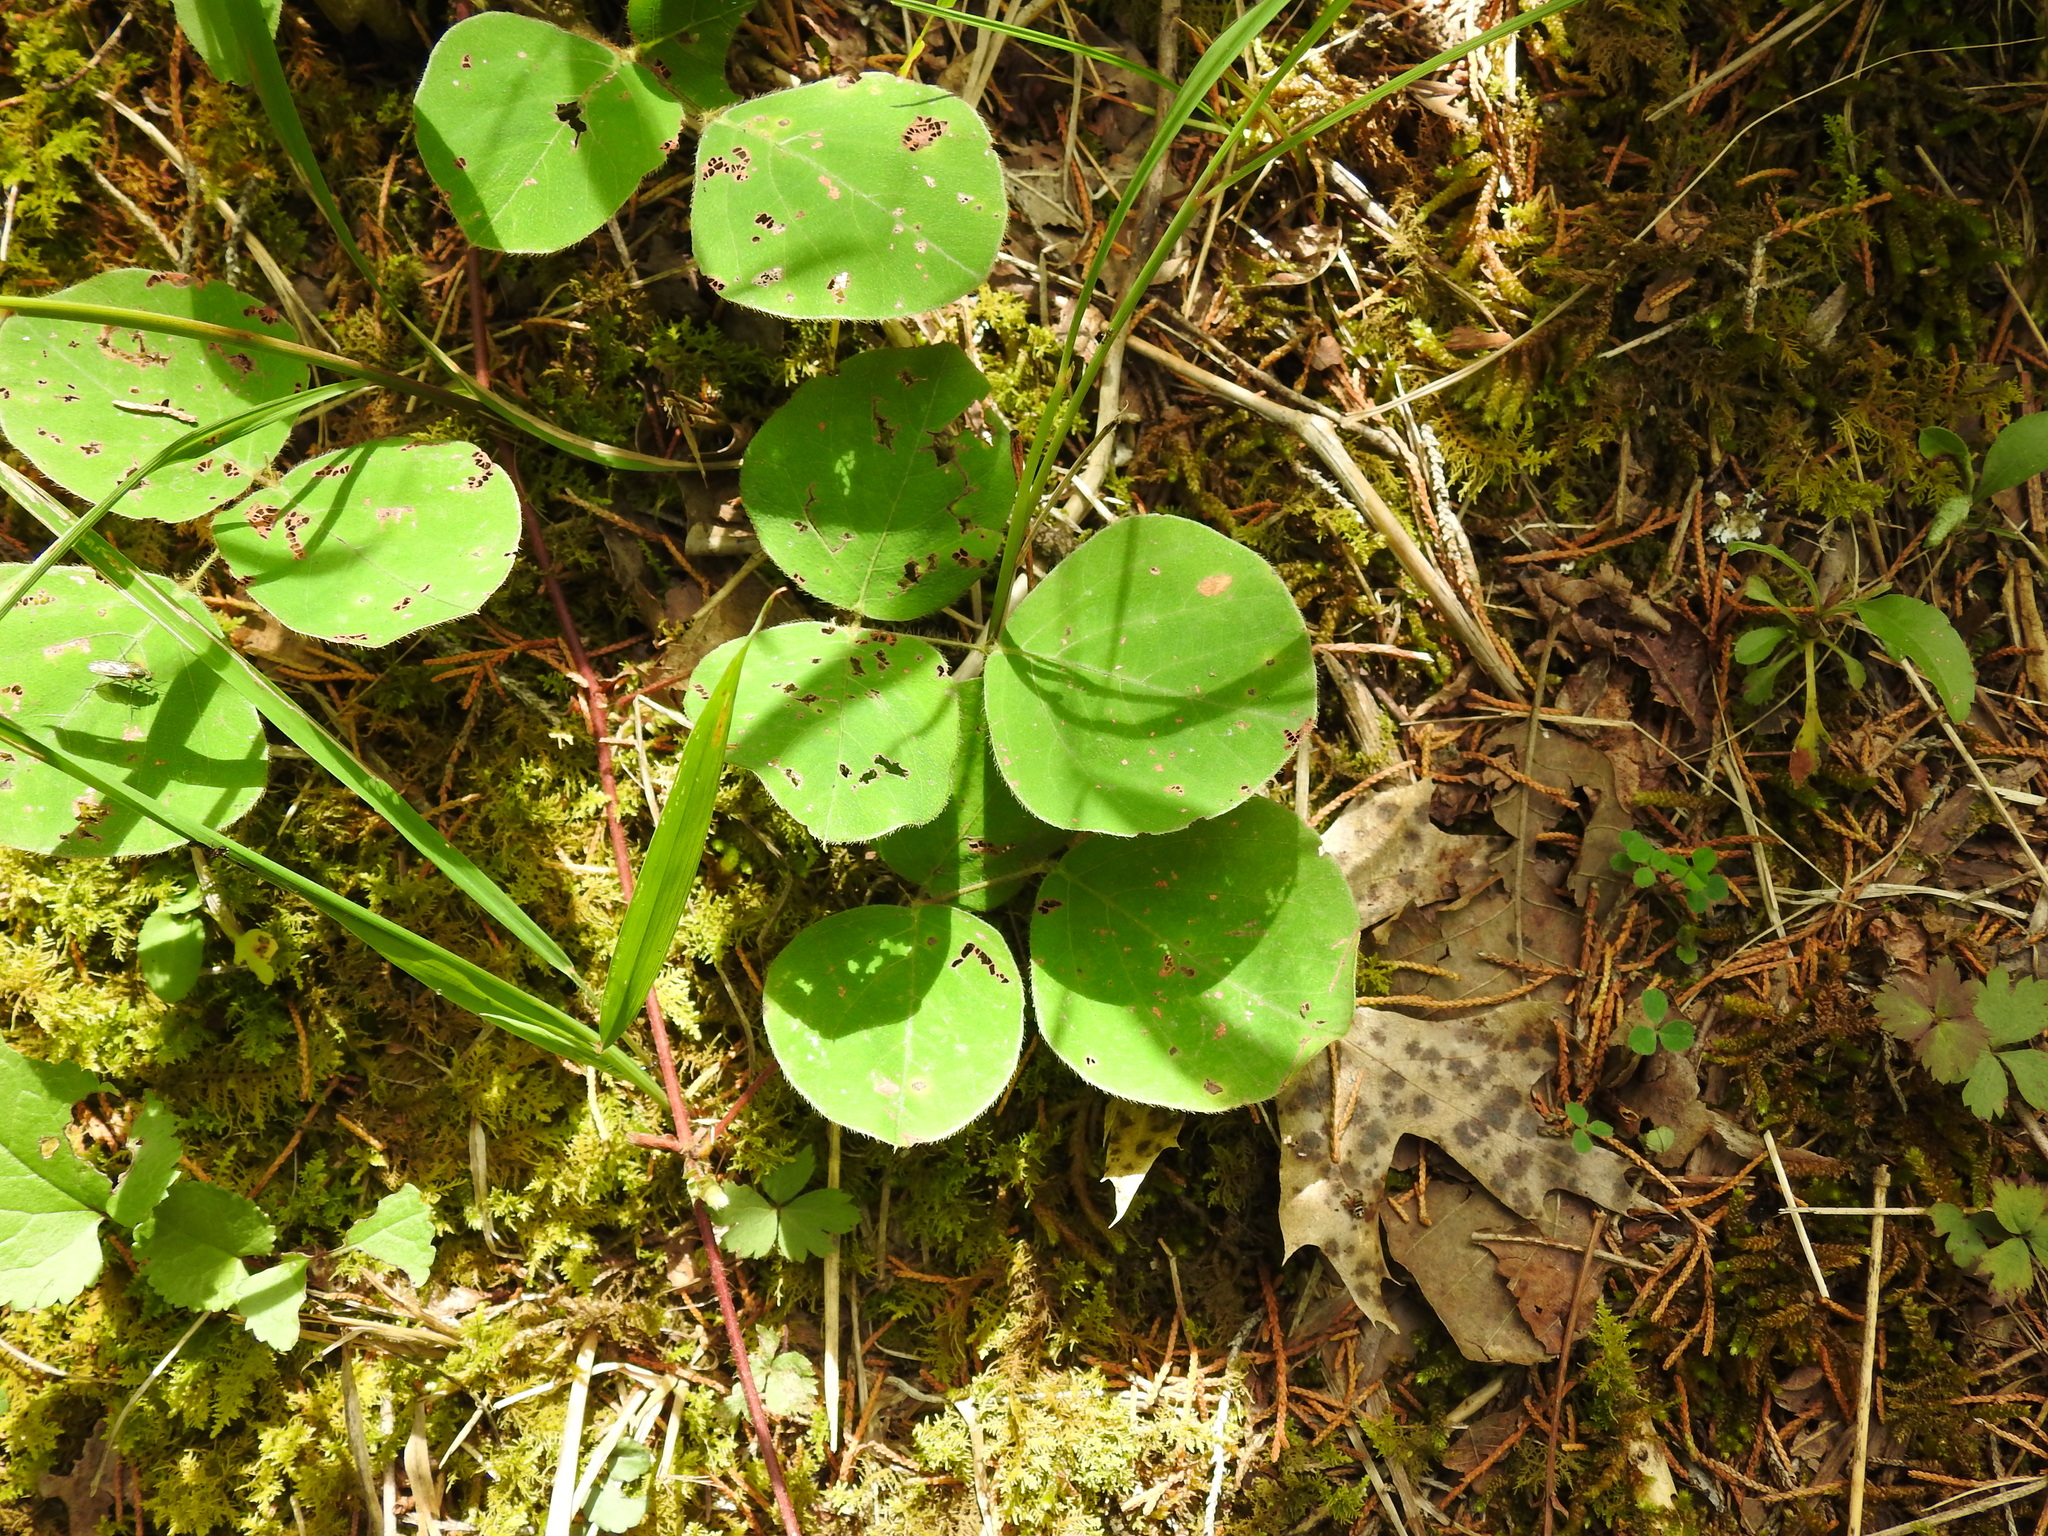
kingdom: Plantae
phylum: Tracheophyta
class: Magnoliopsida
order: Fabales
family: Fabaceae
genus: Desmodium
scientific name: Desmodium rotundifolium
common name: Dollarleaf
